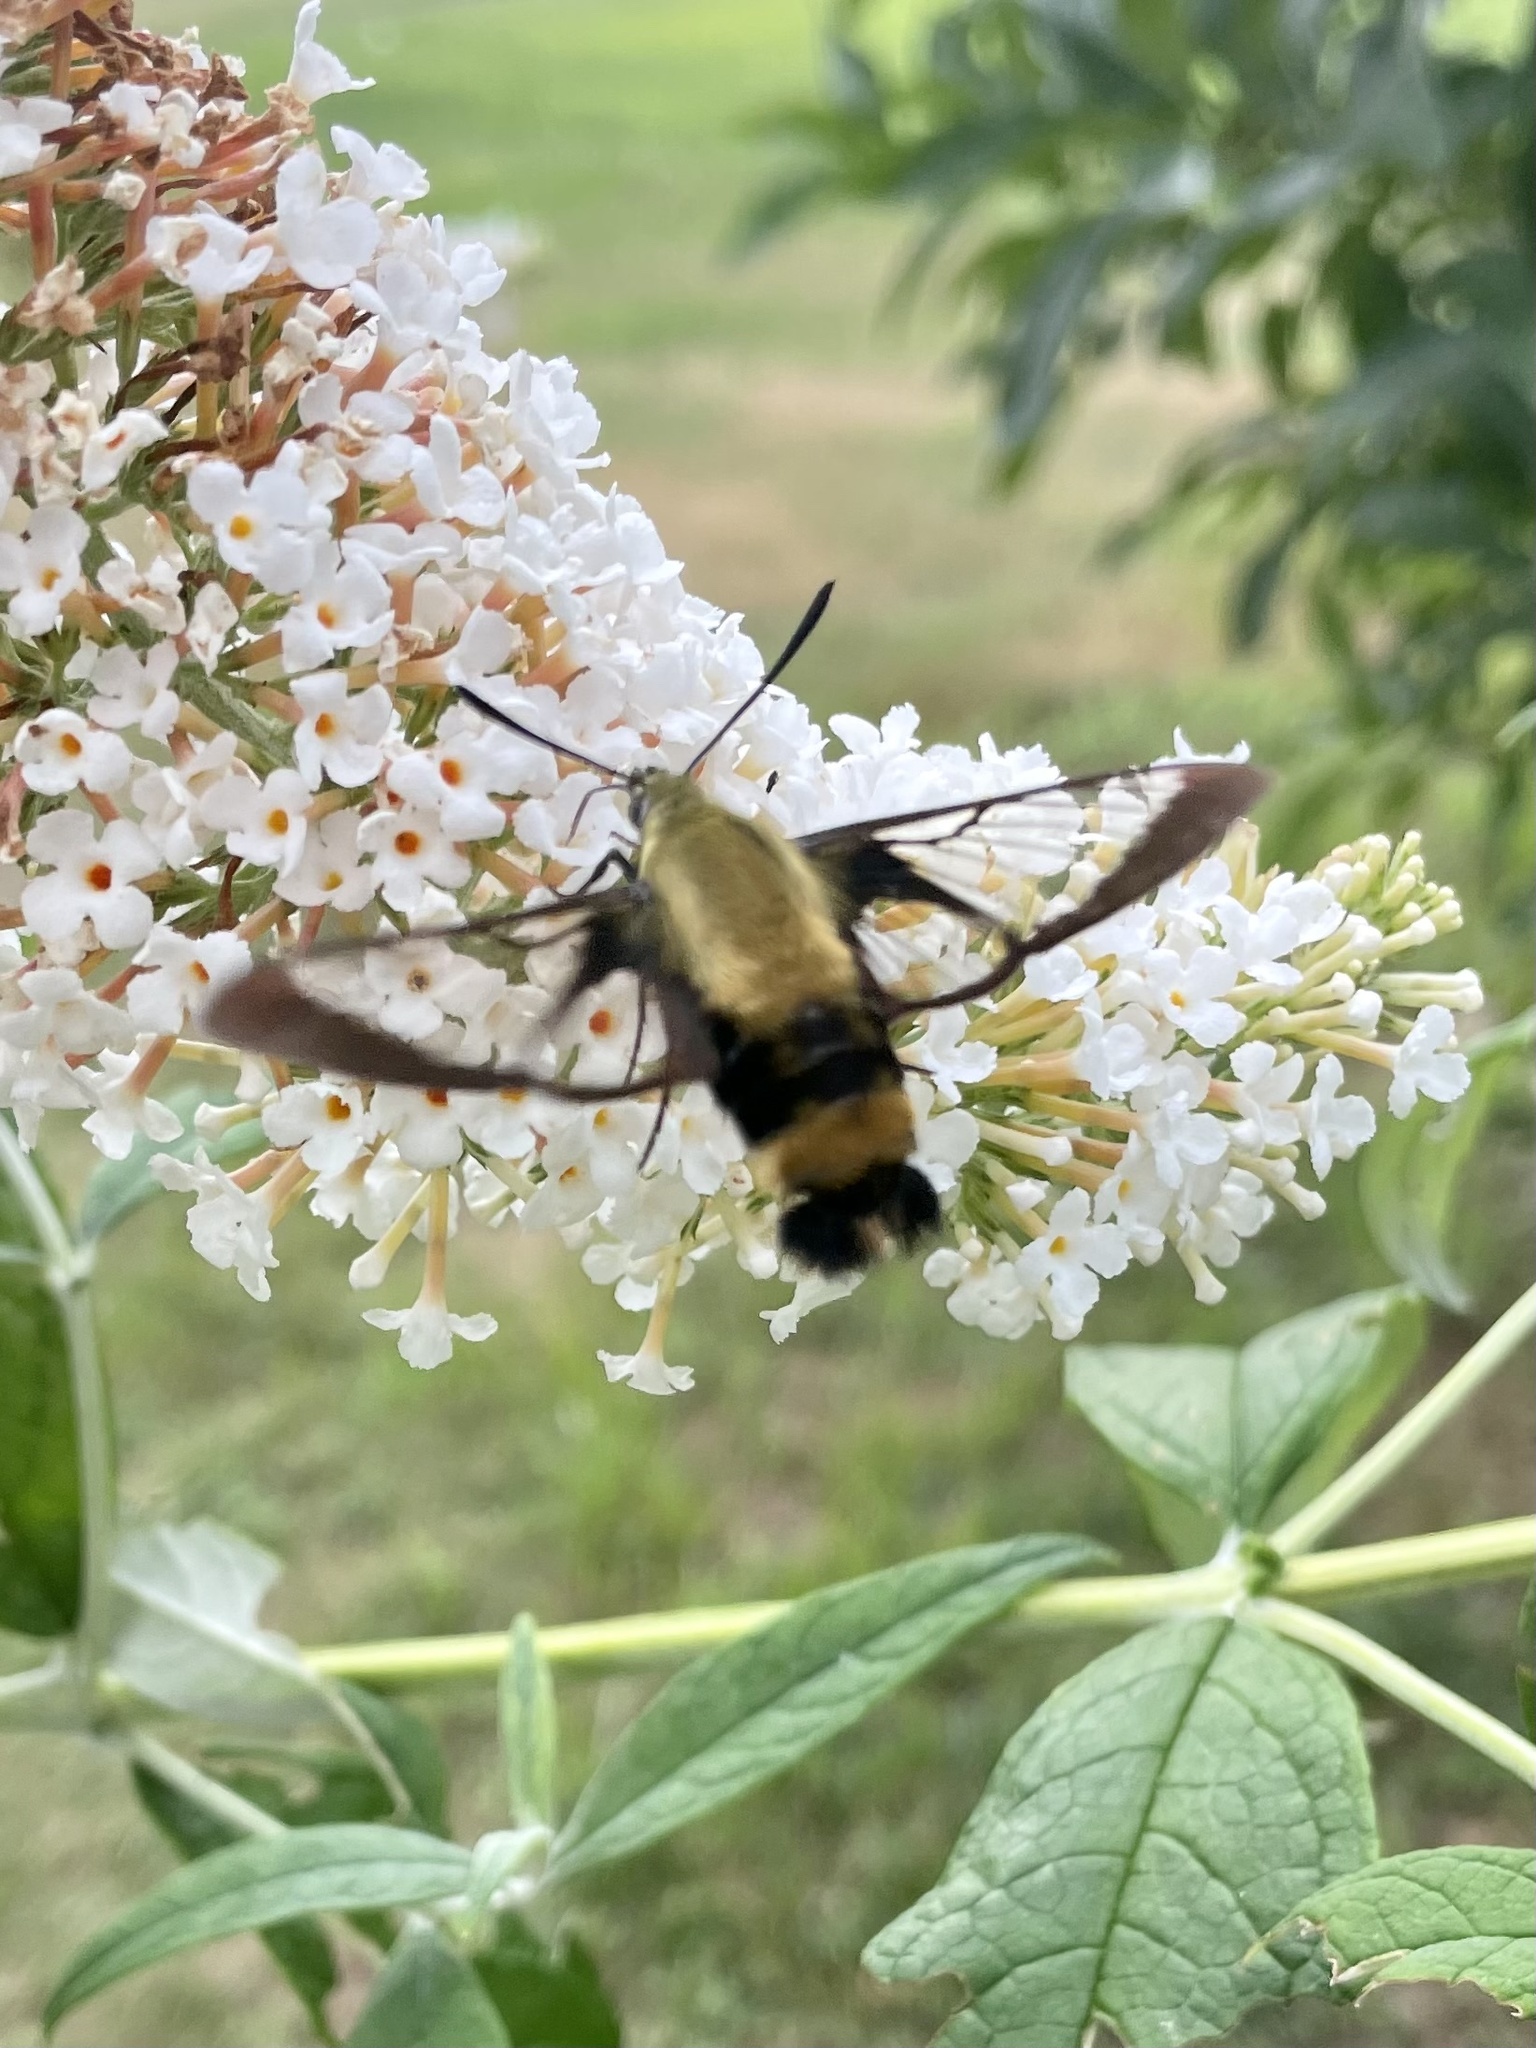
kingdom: Animalia
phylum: Arthropoda
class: Insecta
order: Lepidoptera
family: Sphingidae
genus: Hemaris
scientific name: Hemaris diffinis
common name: Bumblebee moth
